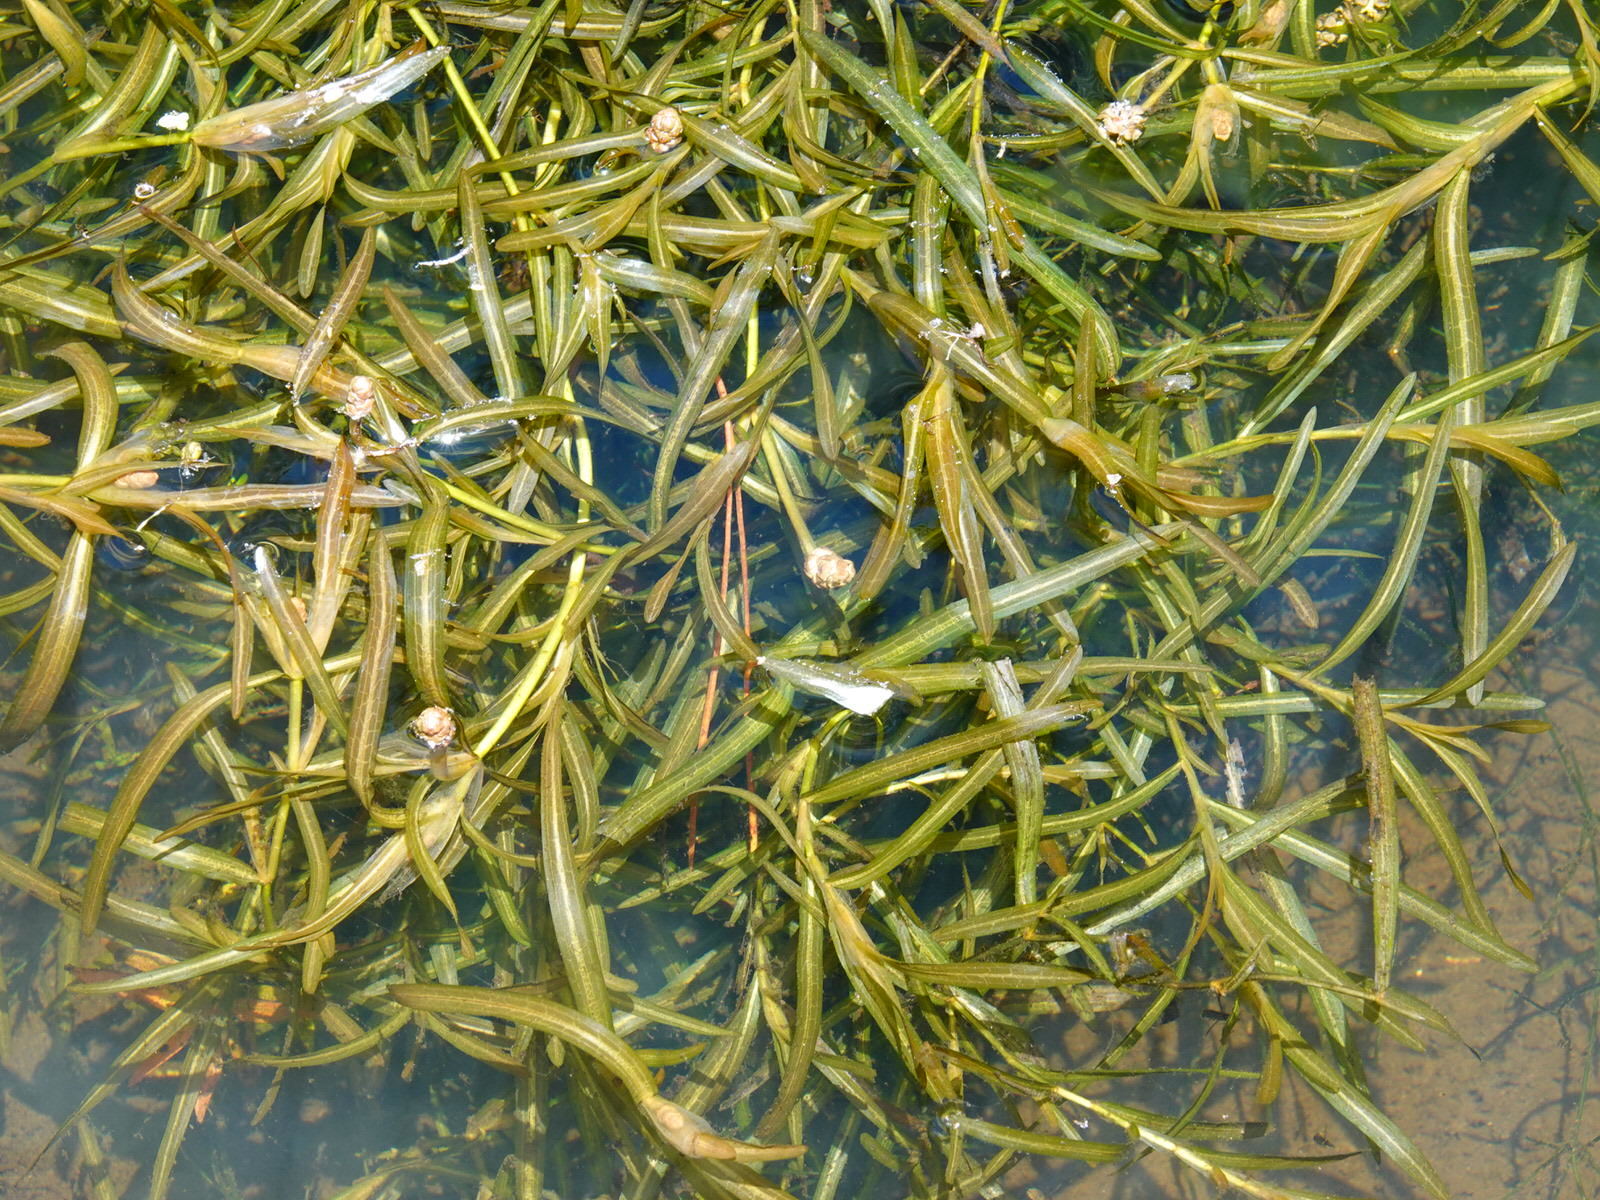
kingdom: Plantae
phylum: Tracheophyta
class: Liliopsida
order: Alismatales
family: Potamogetonaceae
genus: Potamogeton
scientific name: Potamogeton ochreatus
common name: Blunt pondweed
